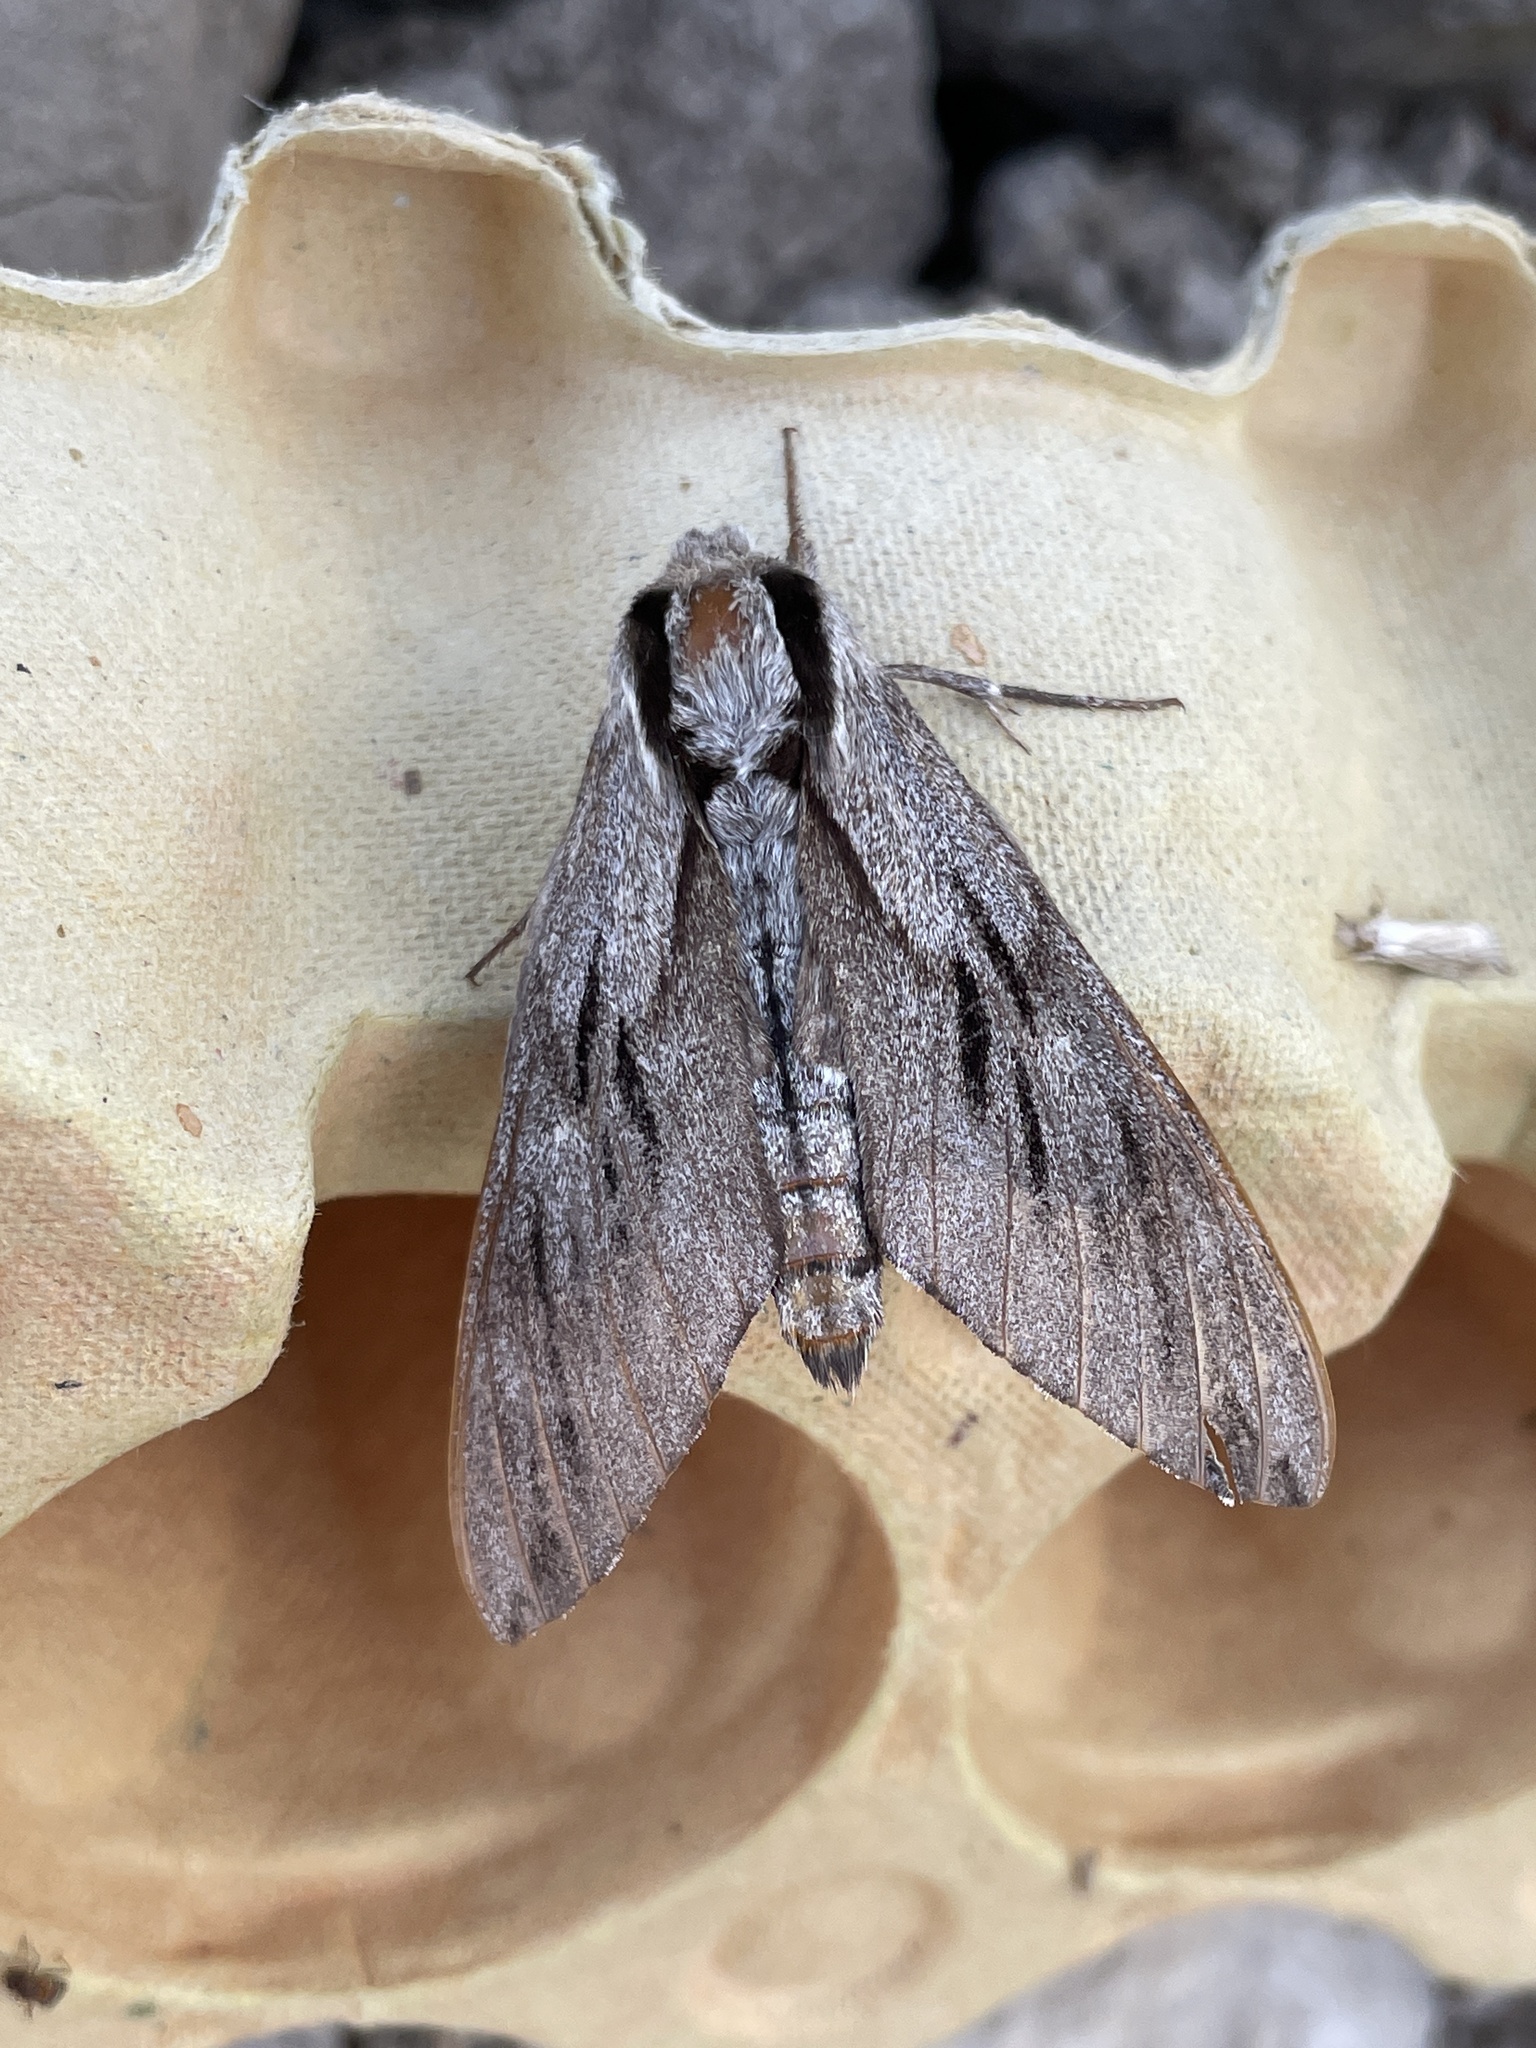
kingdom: Animalia
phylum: Arthropoda
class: Insecta
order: Lepidoptera
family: Sphingidae
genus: Sphinx
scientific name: Sphinx pinastri
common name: Pine hawk-moth
